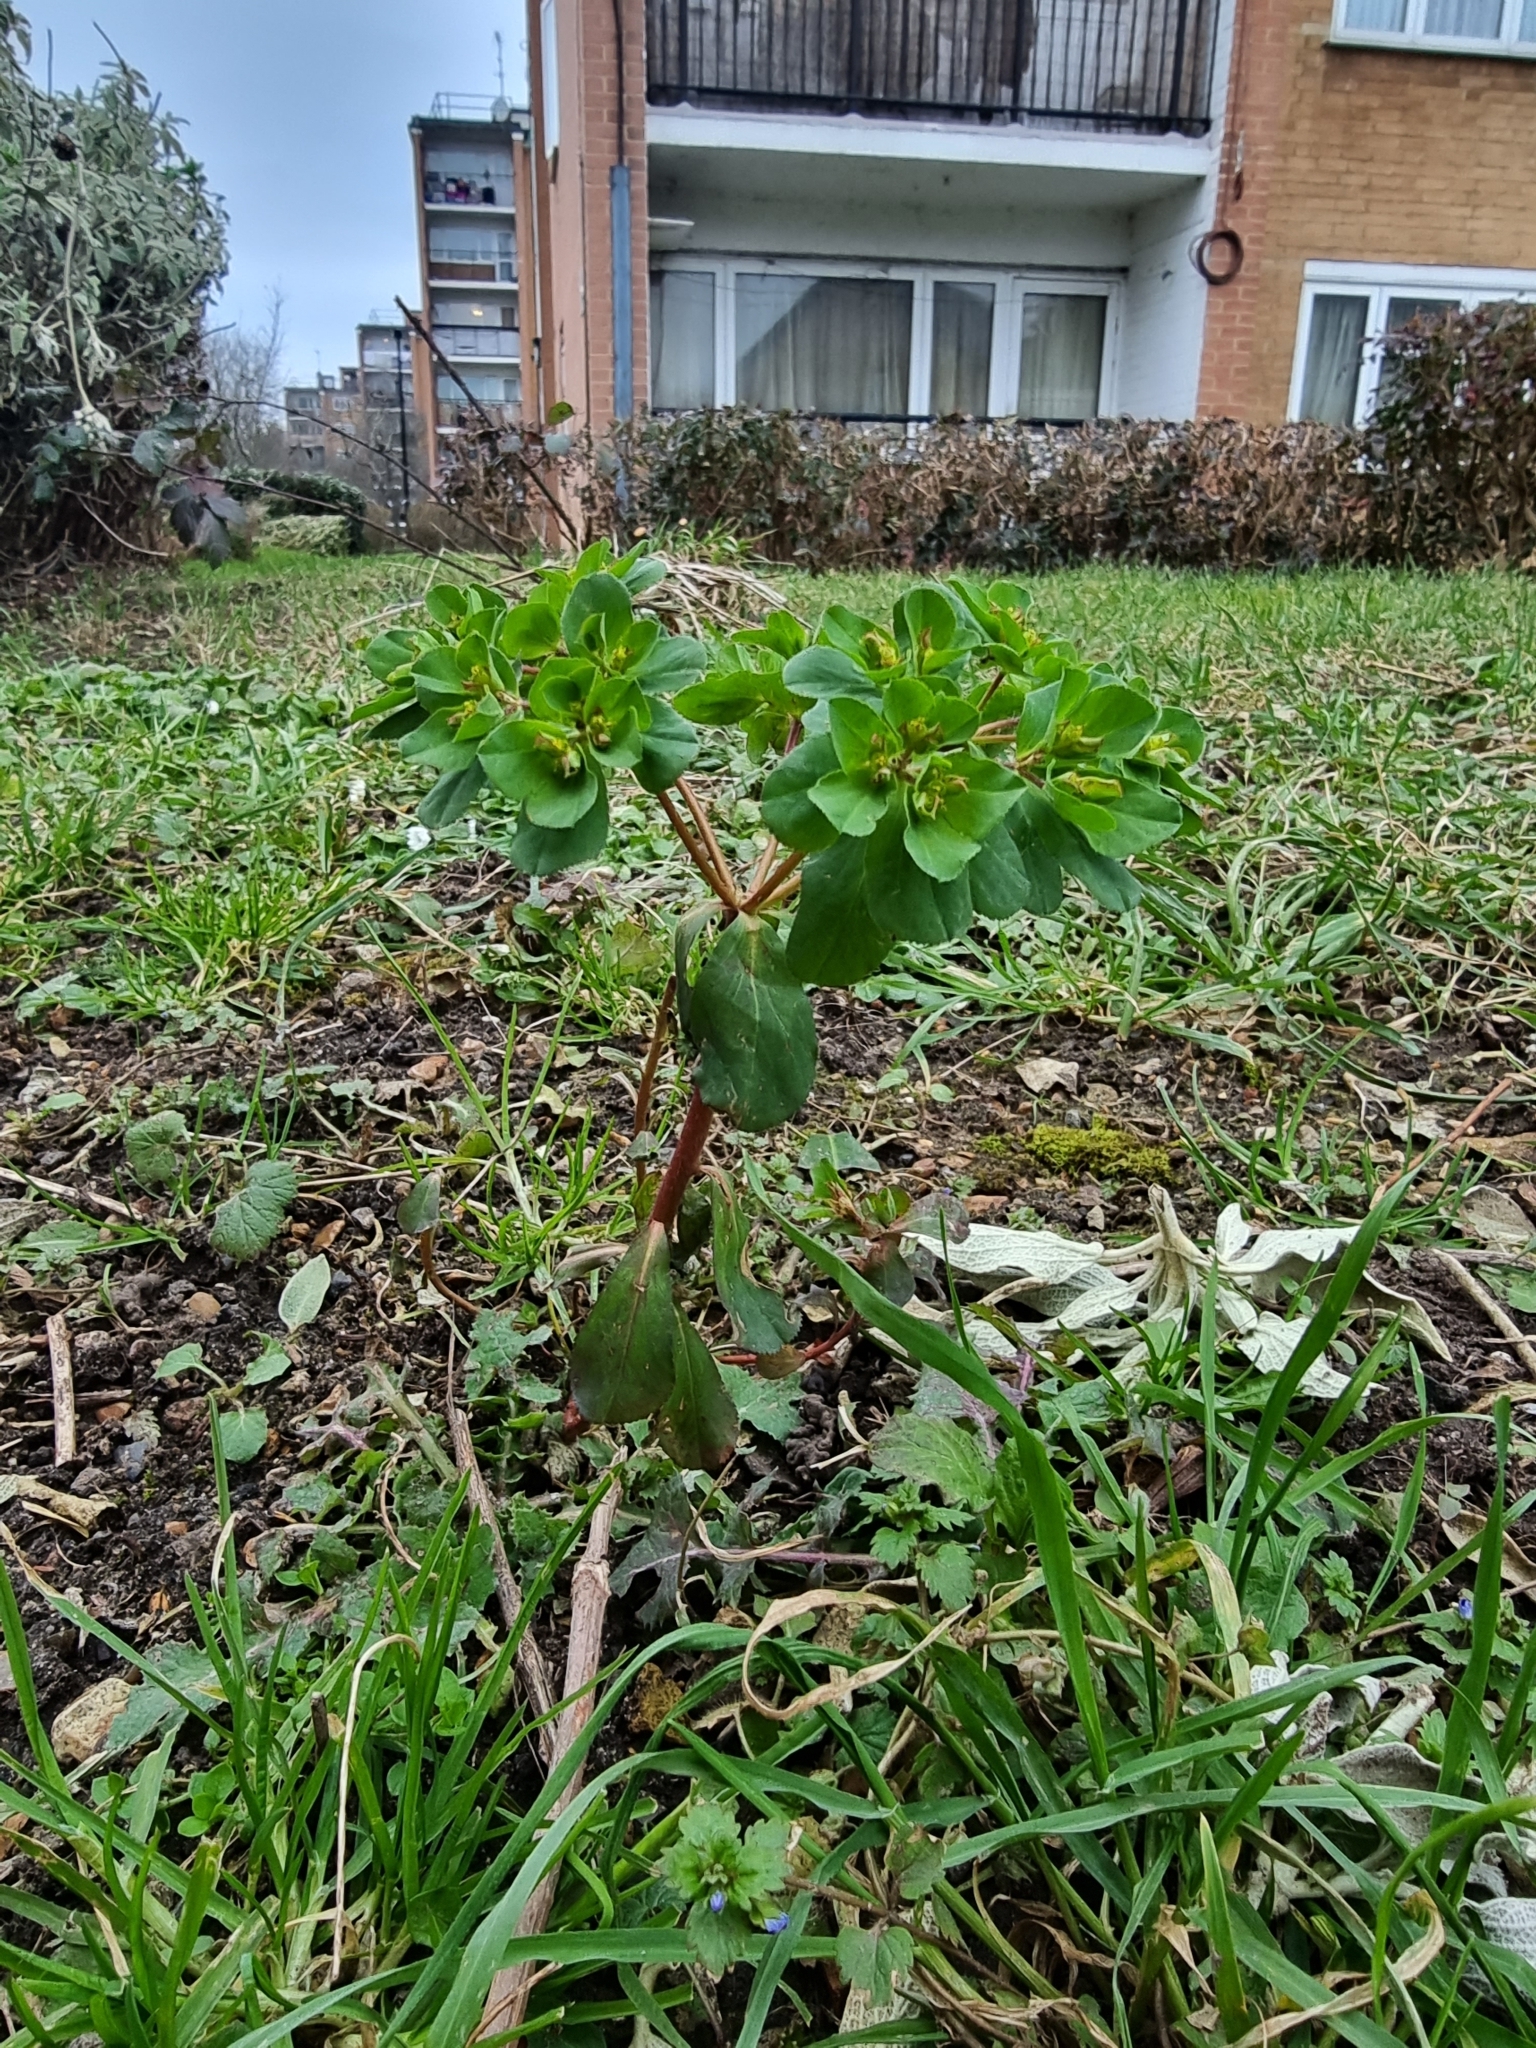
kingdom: Plantae
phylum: Tracheophyta
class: Magnoliopsida
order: Malpighiales
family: Euphorbiaceae
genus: Euphorbia
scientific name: Euphorbia helioscopia
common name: Sun spurge
